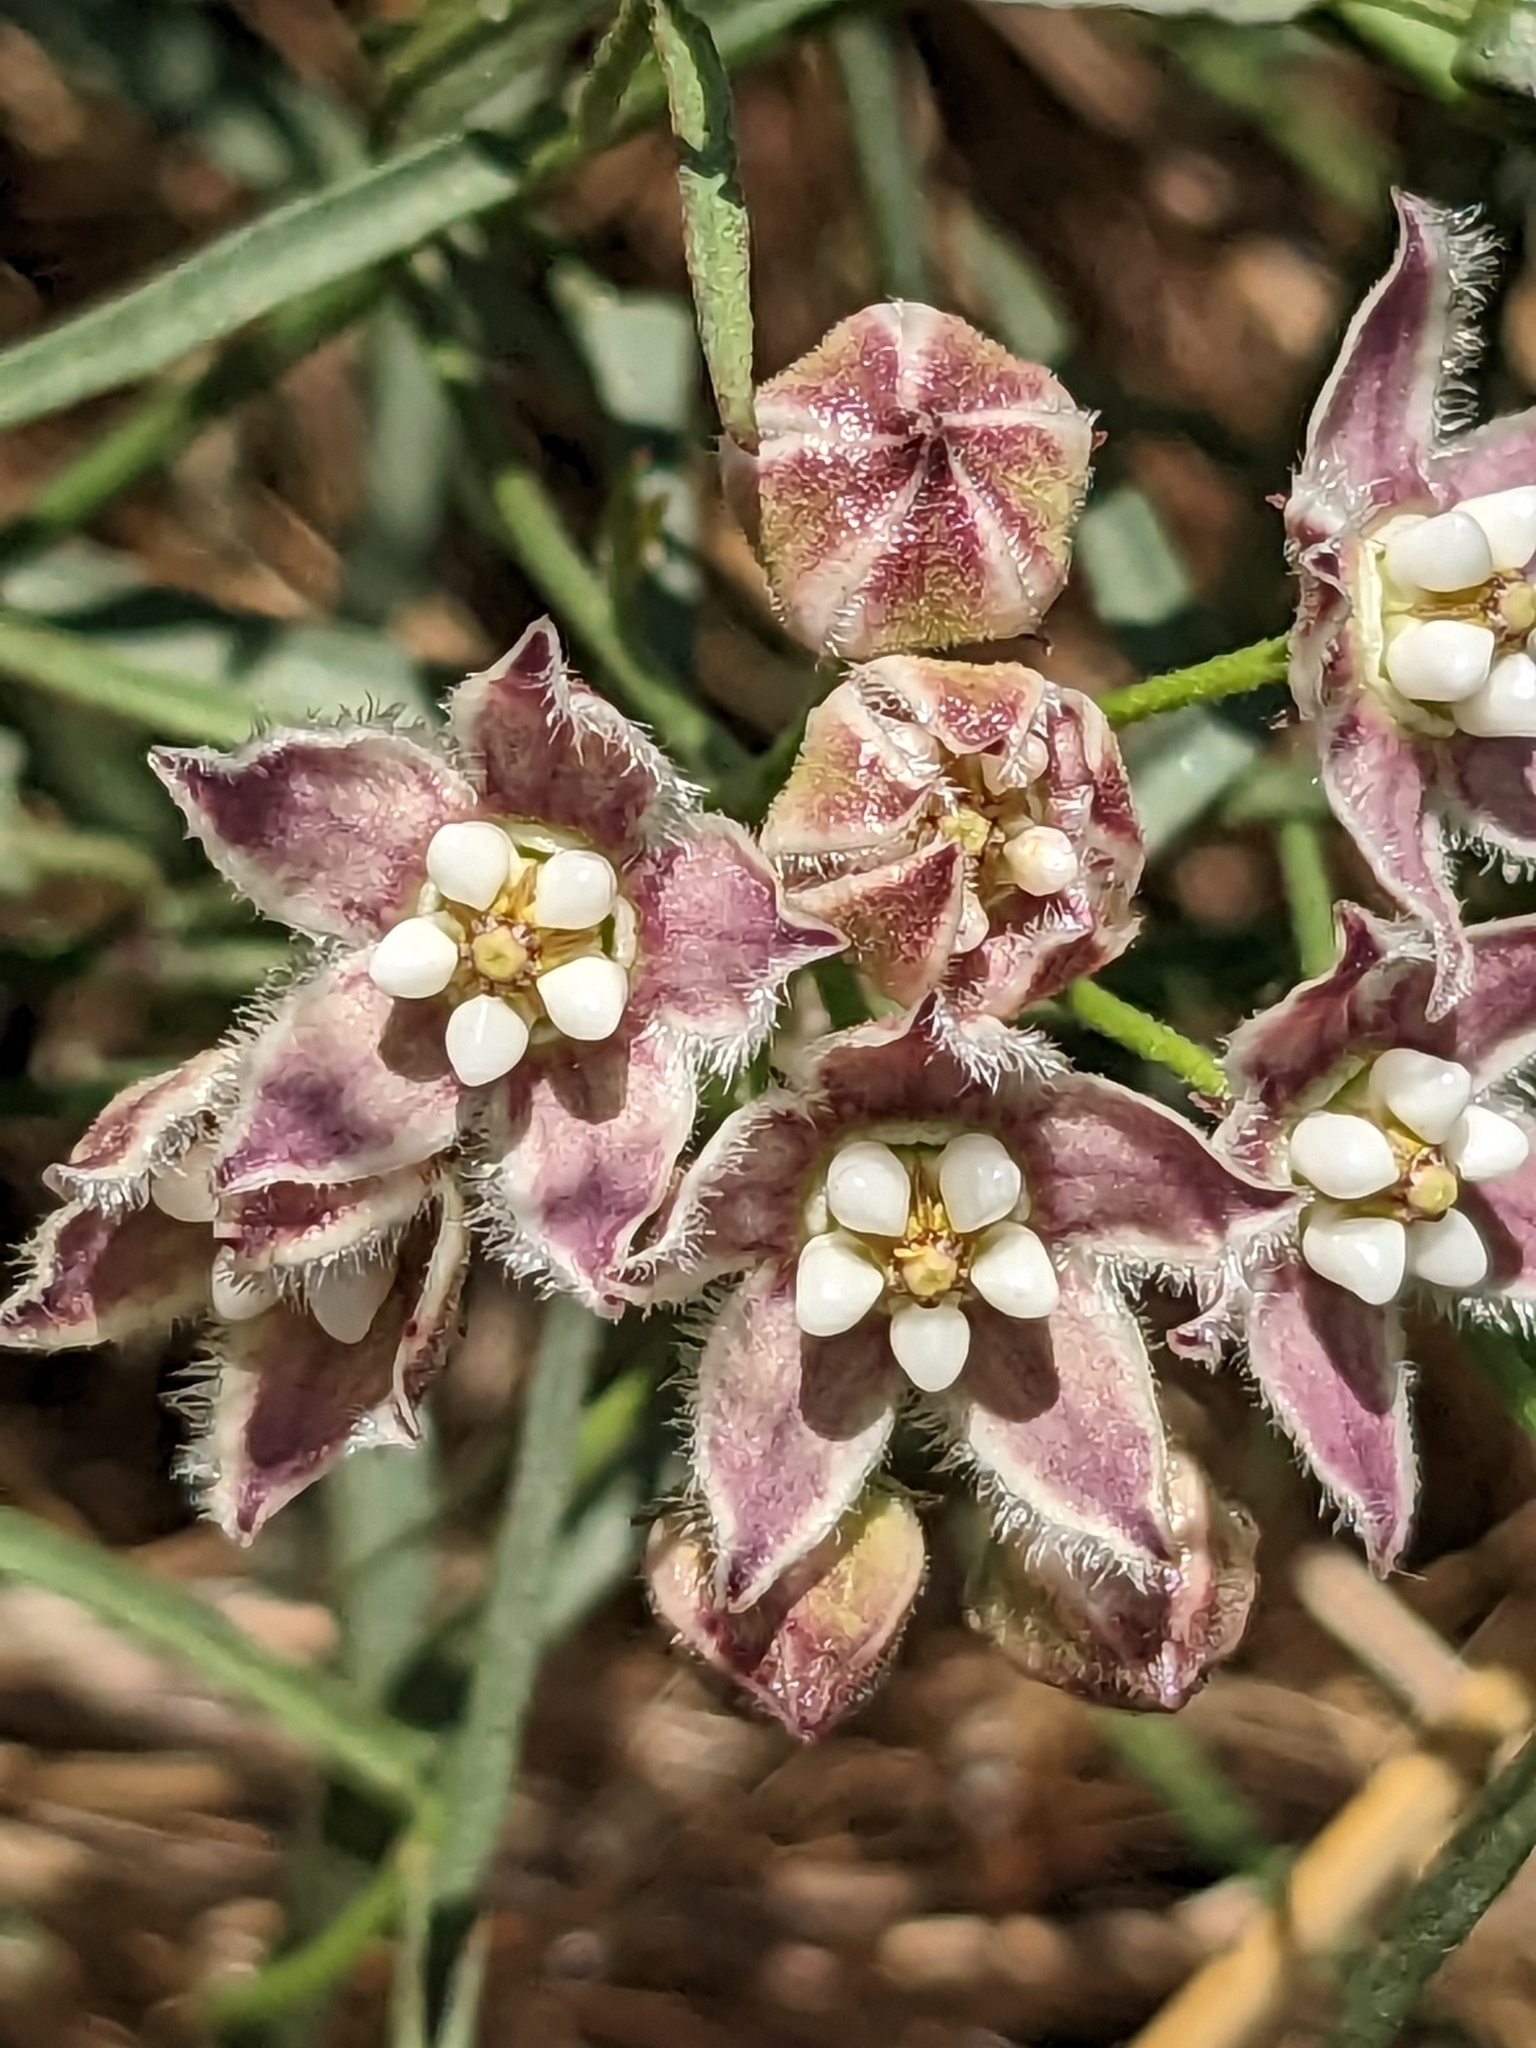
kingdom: Plantae
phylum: Tracheophyta
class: Magnoliopsida
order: Gentianales
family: Apocynaceae
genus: Funastrum
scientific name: Funastrum heterophyllum
